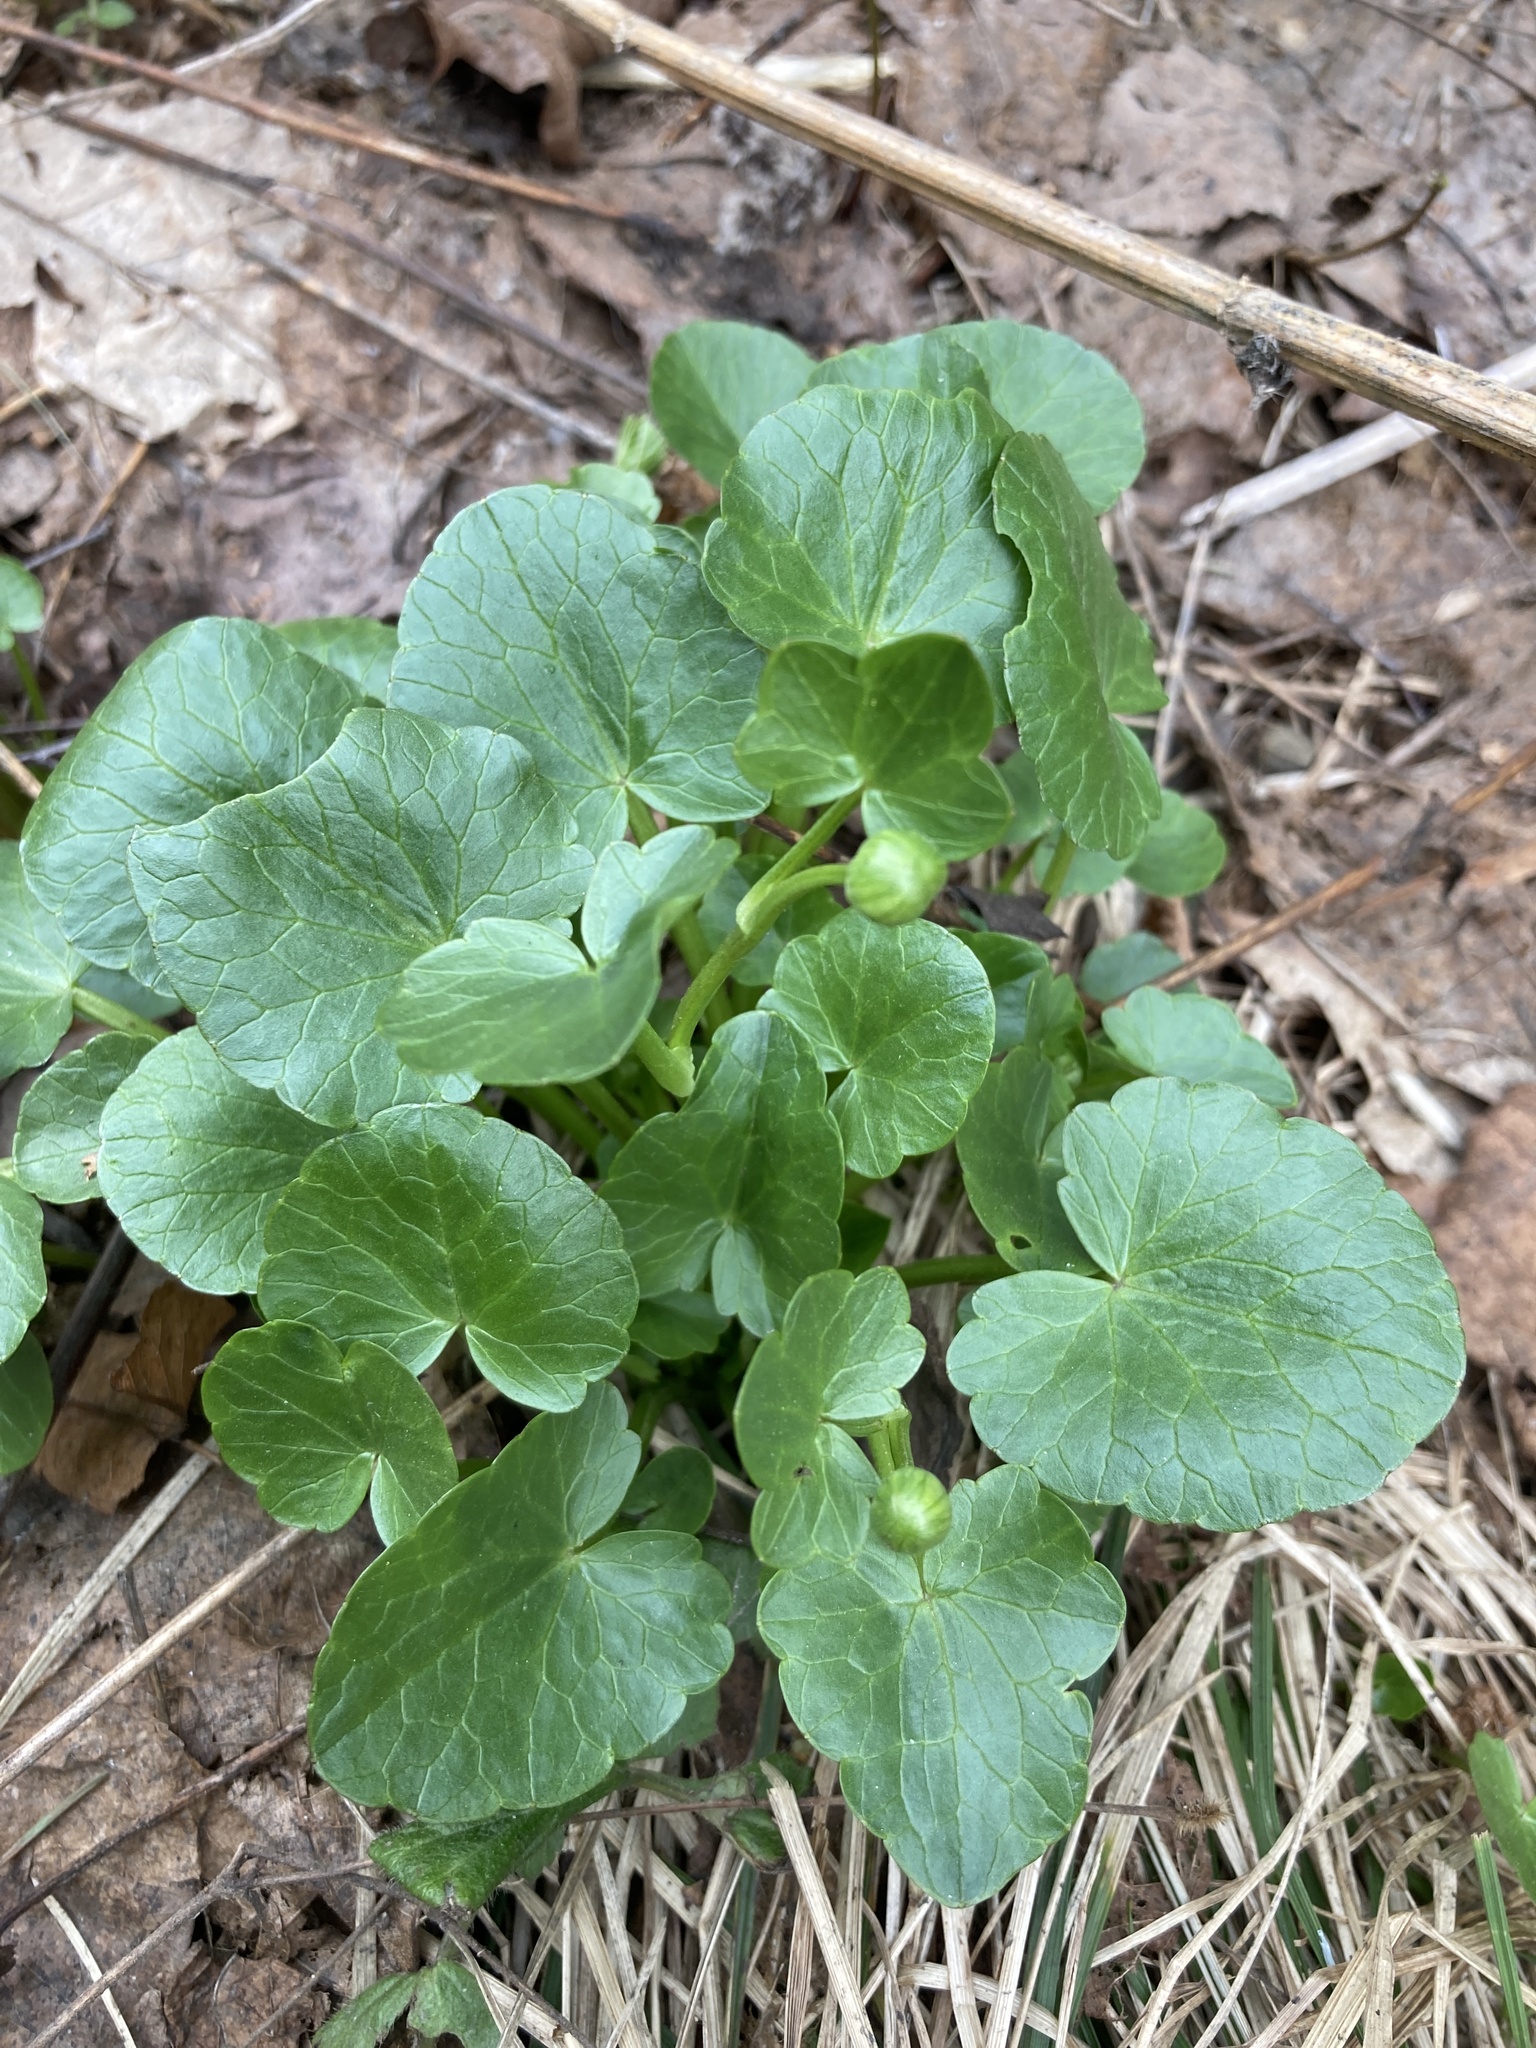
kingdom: Plantae
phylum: Tracheophyta
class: Magnoliopsida
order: Ranunculales
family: Ranunculaceae
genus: Ficaria
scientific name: Ficaria verna
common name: Lesser celandine
